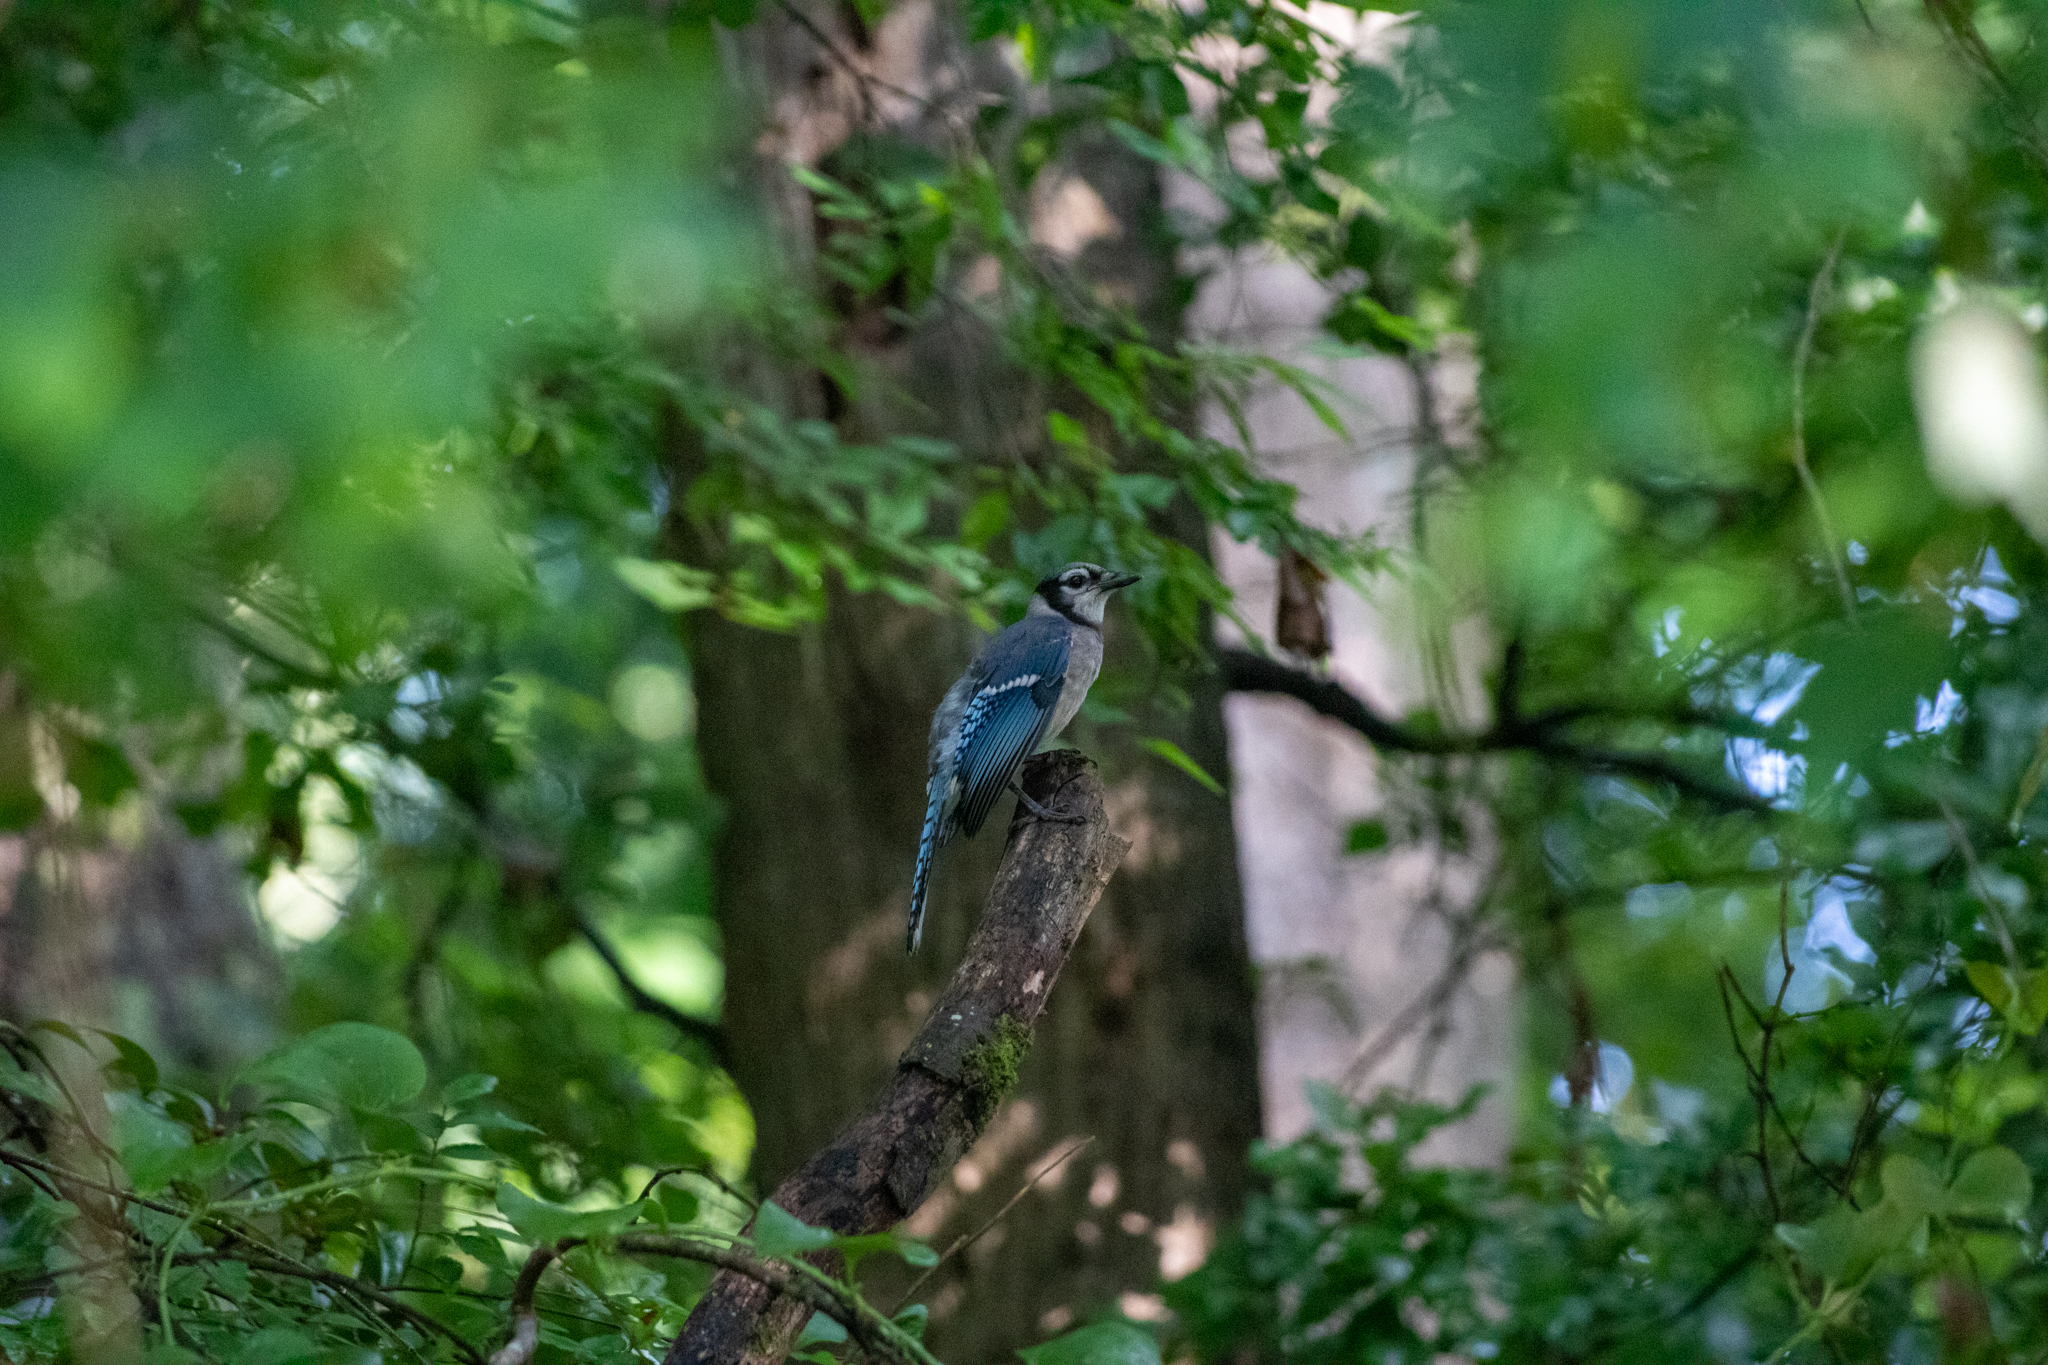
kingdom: Animalia
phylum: Chordata
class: Aves
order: Passeriformes
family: Corvidae
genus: Cyanocitta
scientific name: Cyanocitta cristata
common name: Blue jay
